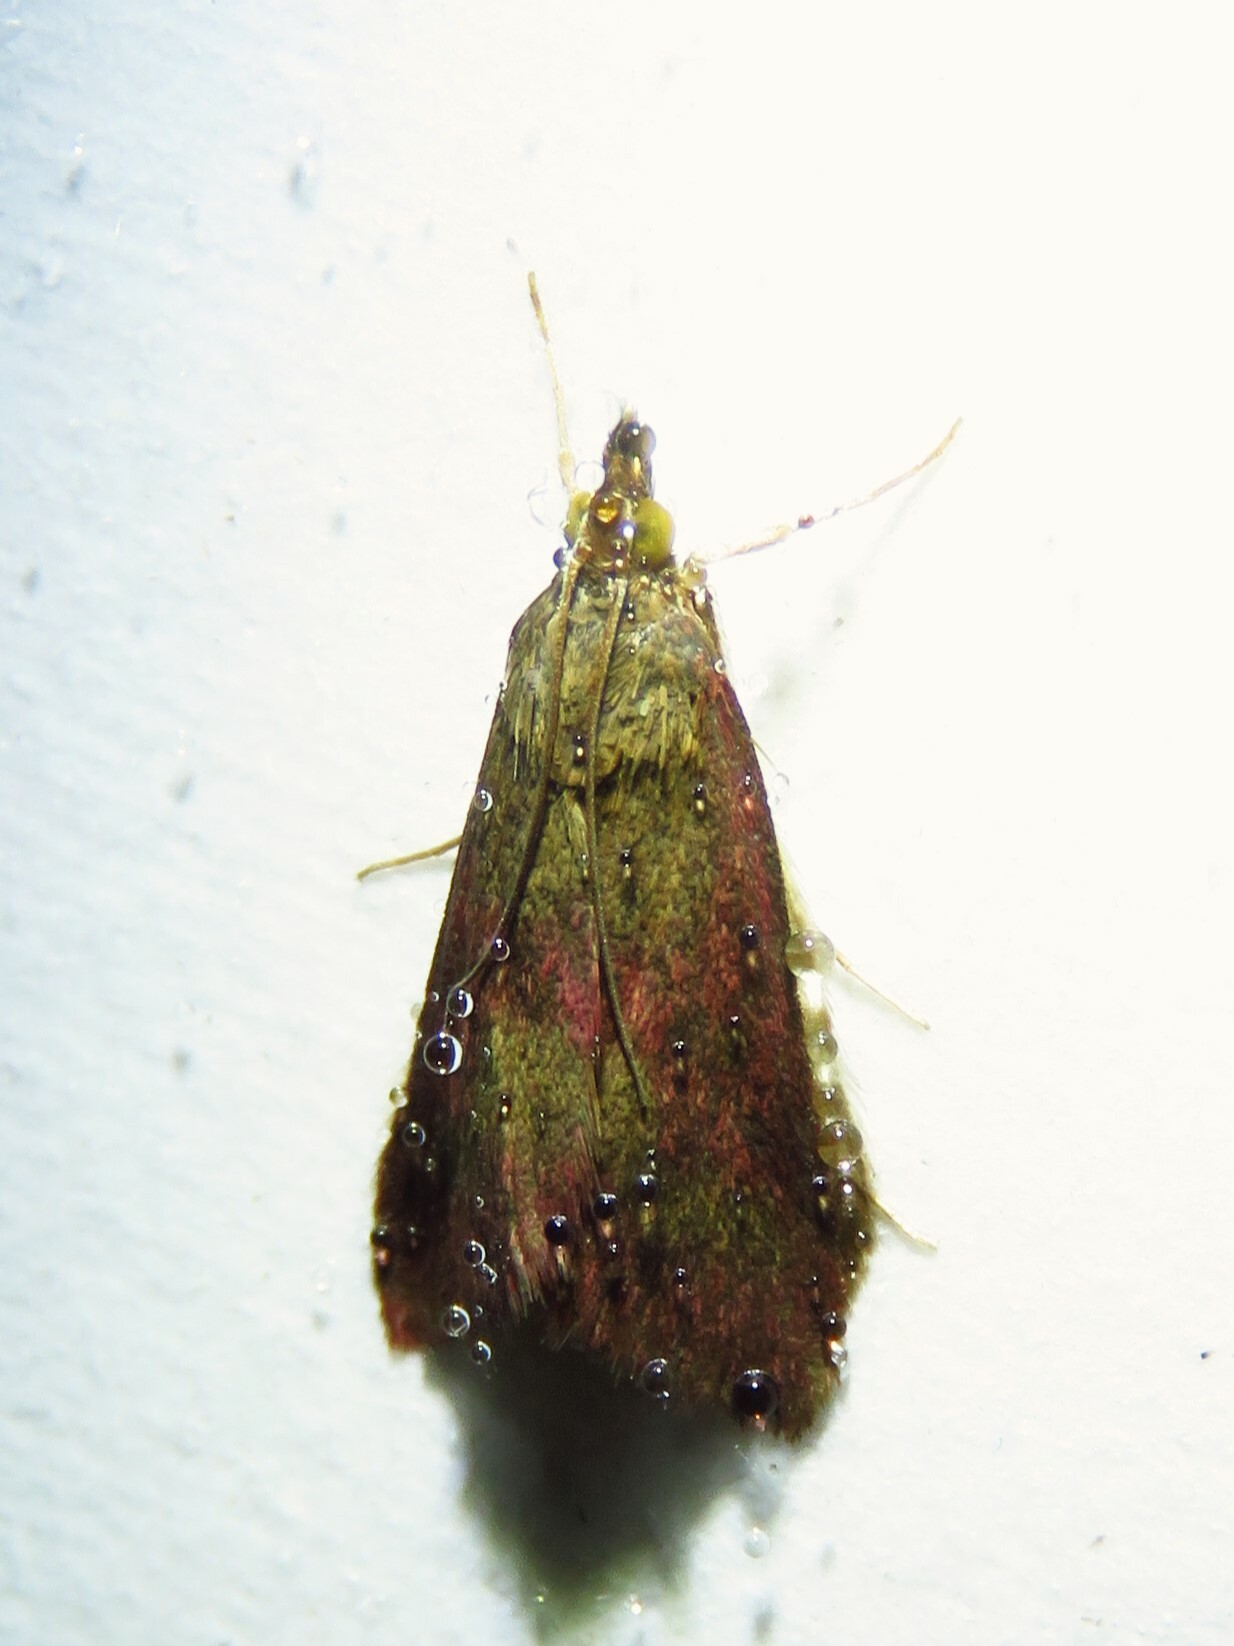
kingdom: Animalia
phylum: Arthropoda
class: Insecta
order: Lepidoptera
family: Crambidae
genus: Pyrausta
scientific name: Pyrausta laticlavia
